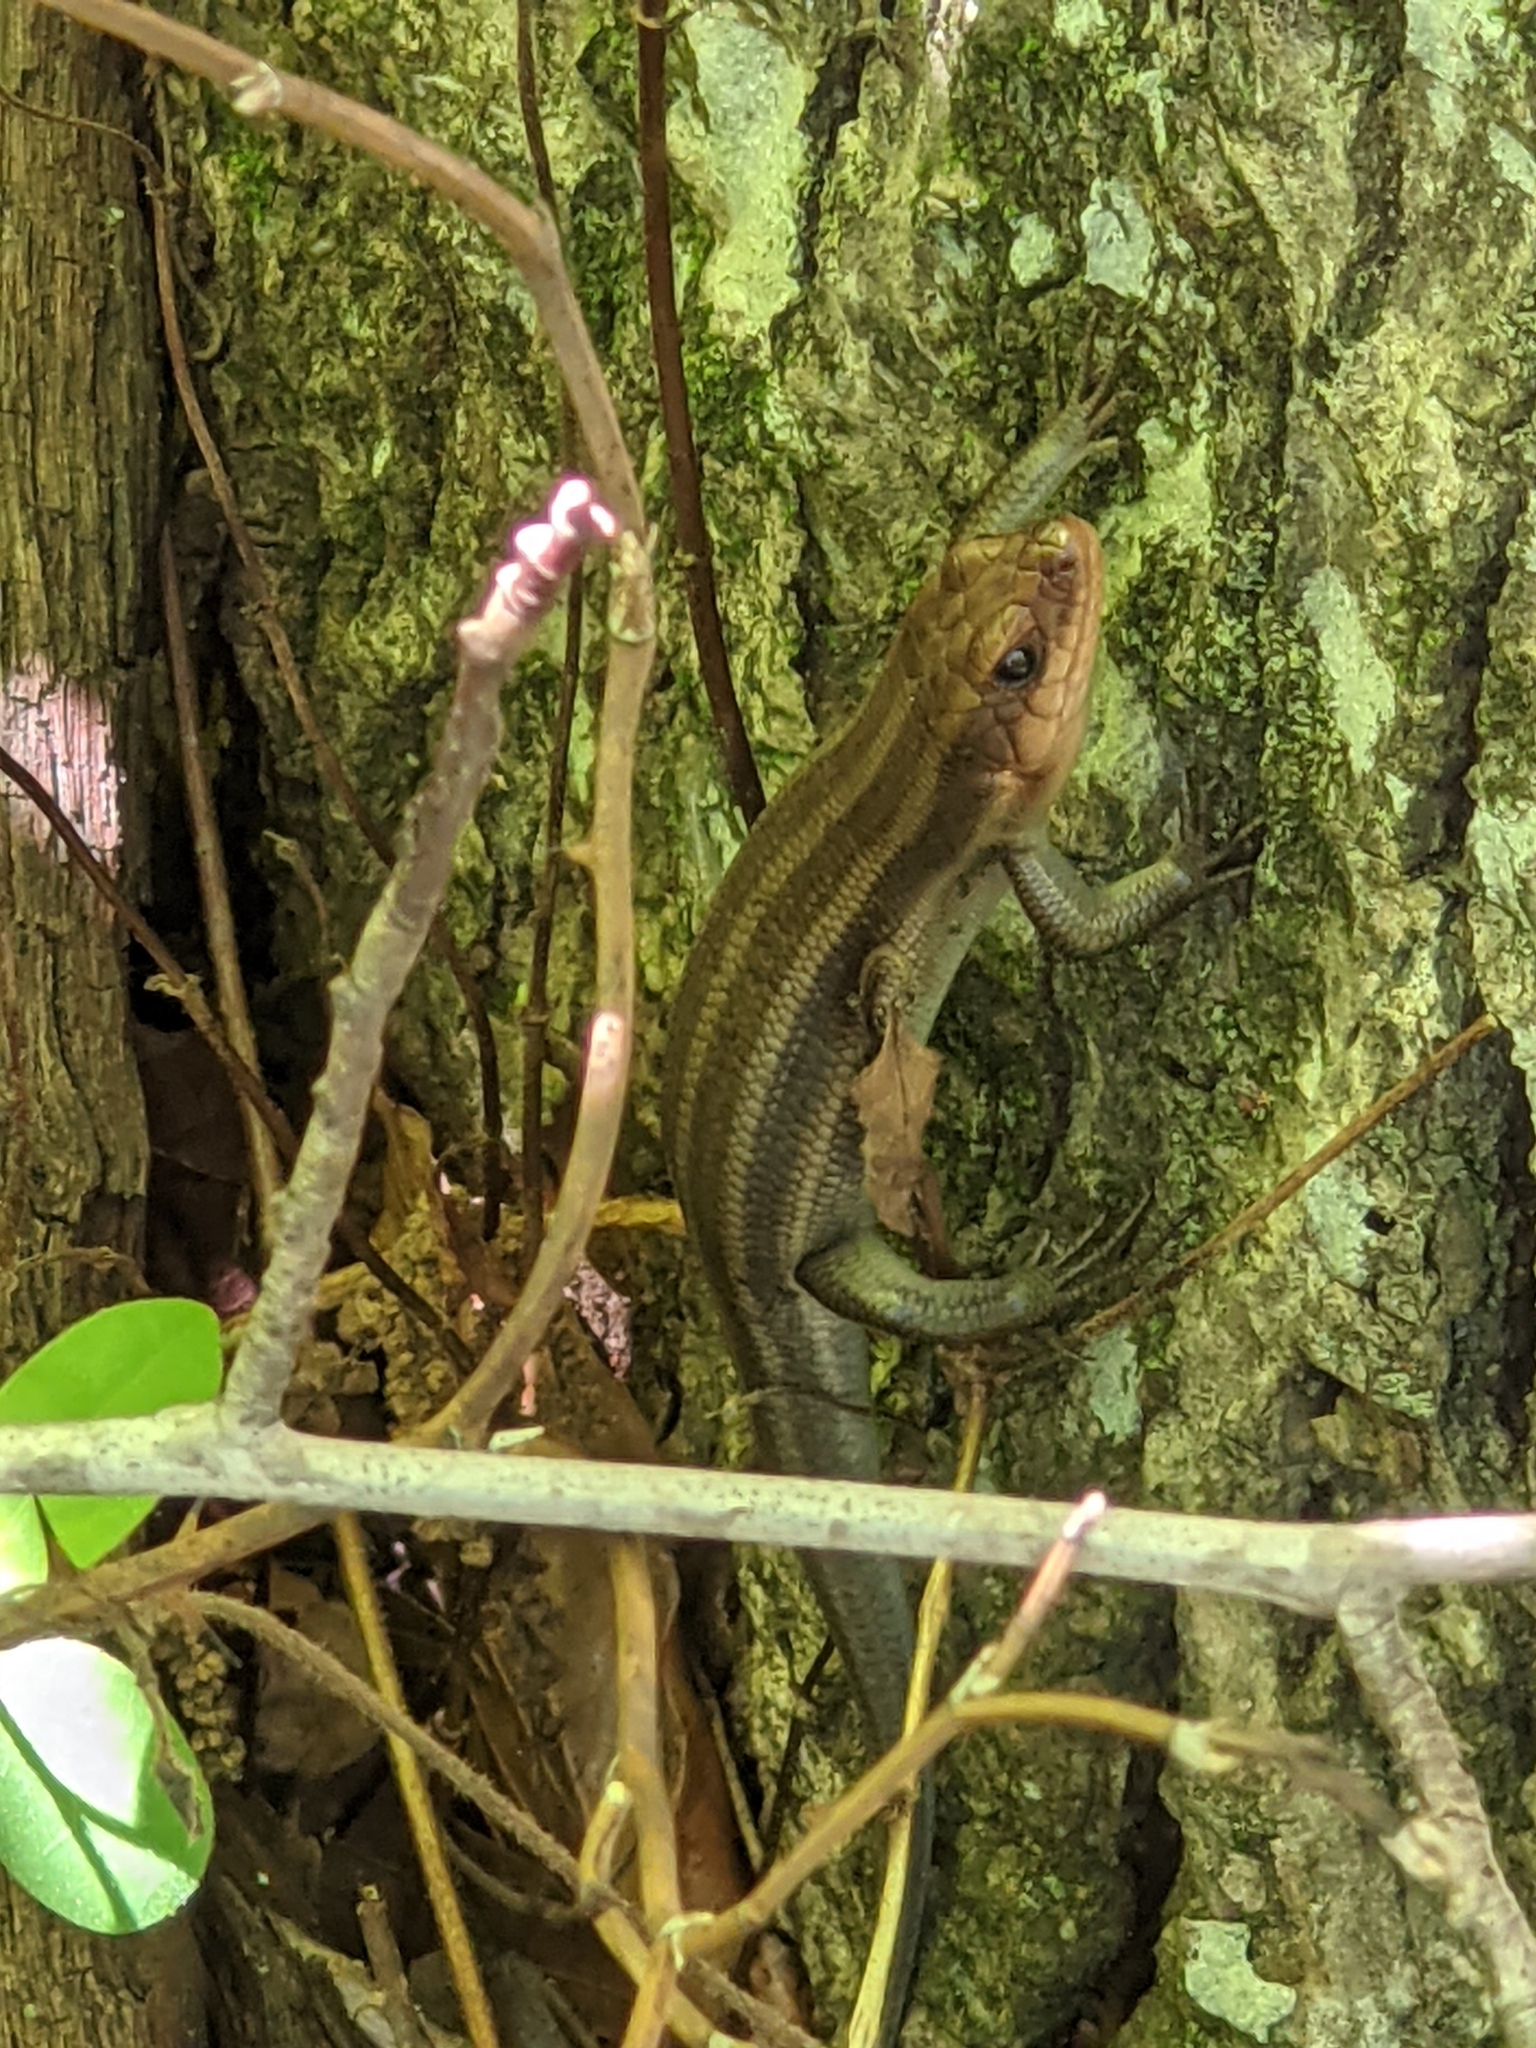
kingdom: Animalia
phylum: Chordata
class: Squamata
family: Scincidae
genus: Plestiodon
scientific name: Plestiodon fasciatus
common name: Five-lined skink
